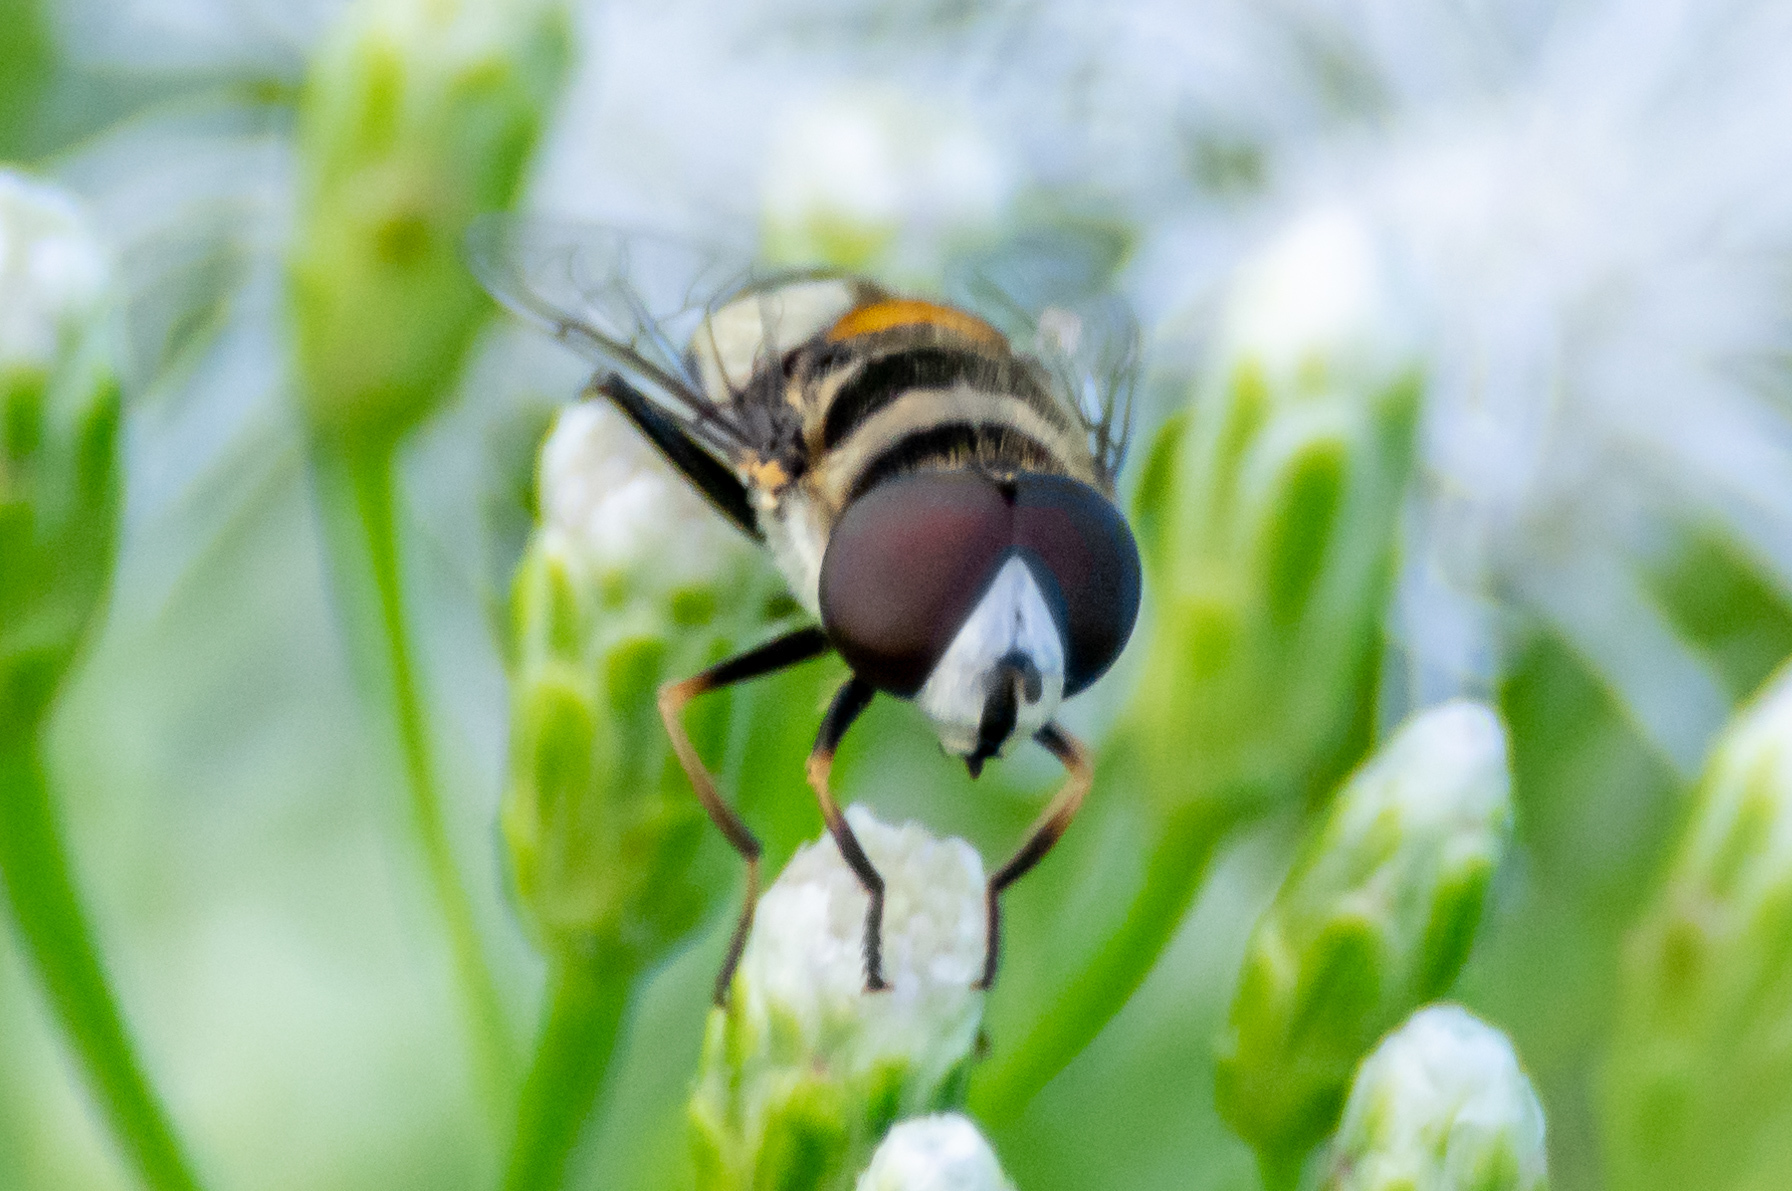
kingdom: Animalia
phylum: Arthropoda
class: Insecta
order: Diptera
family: Syrphidae
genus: Palpada
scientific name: Palpada albifrons
